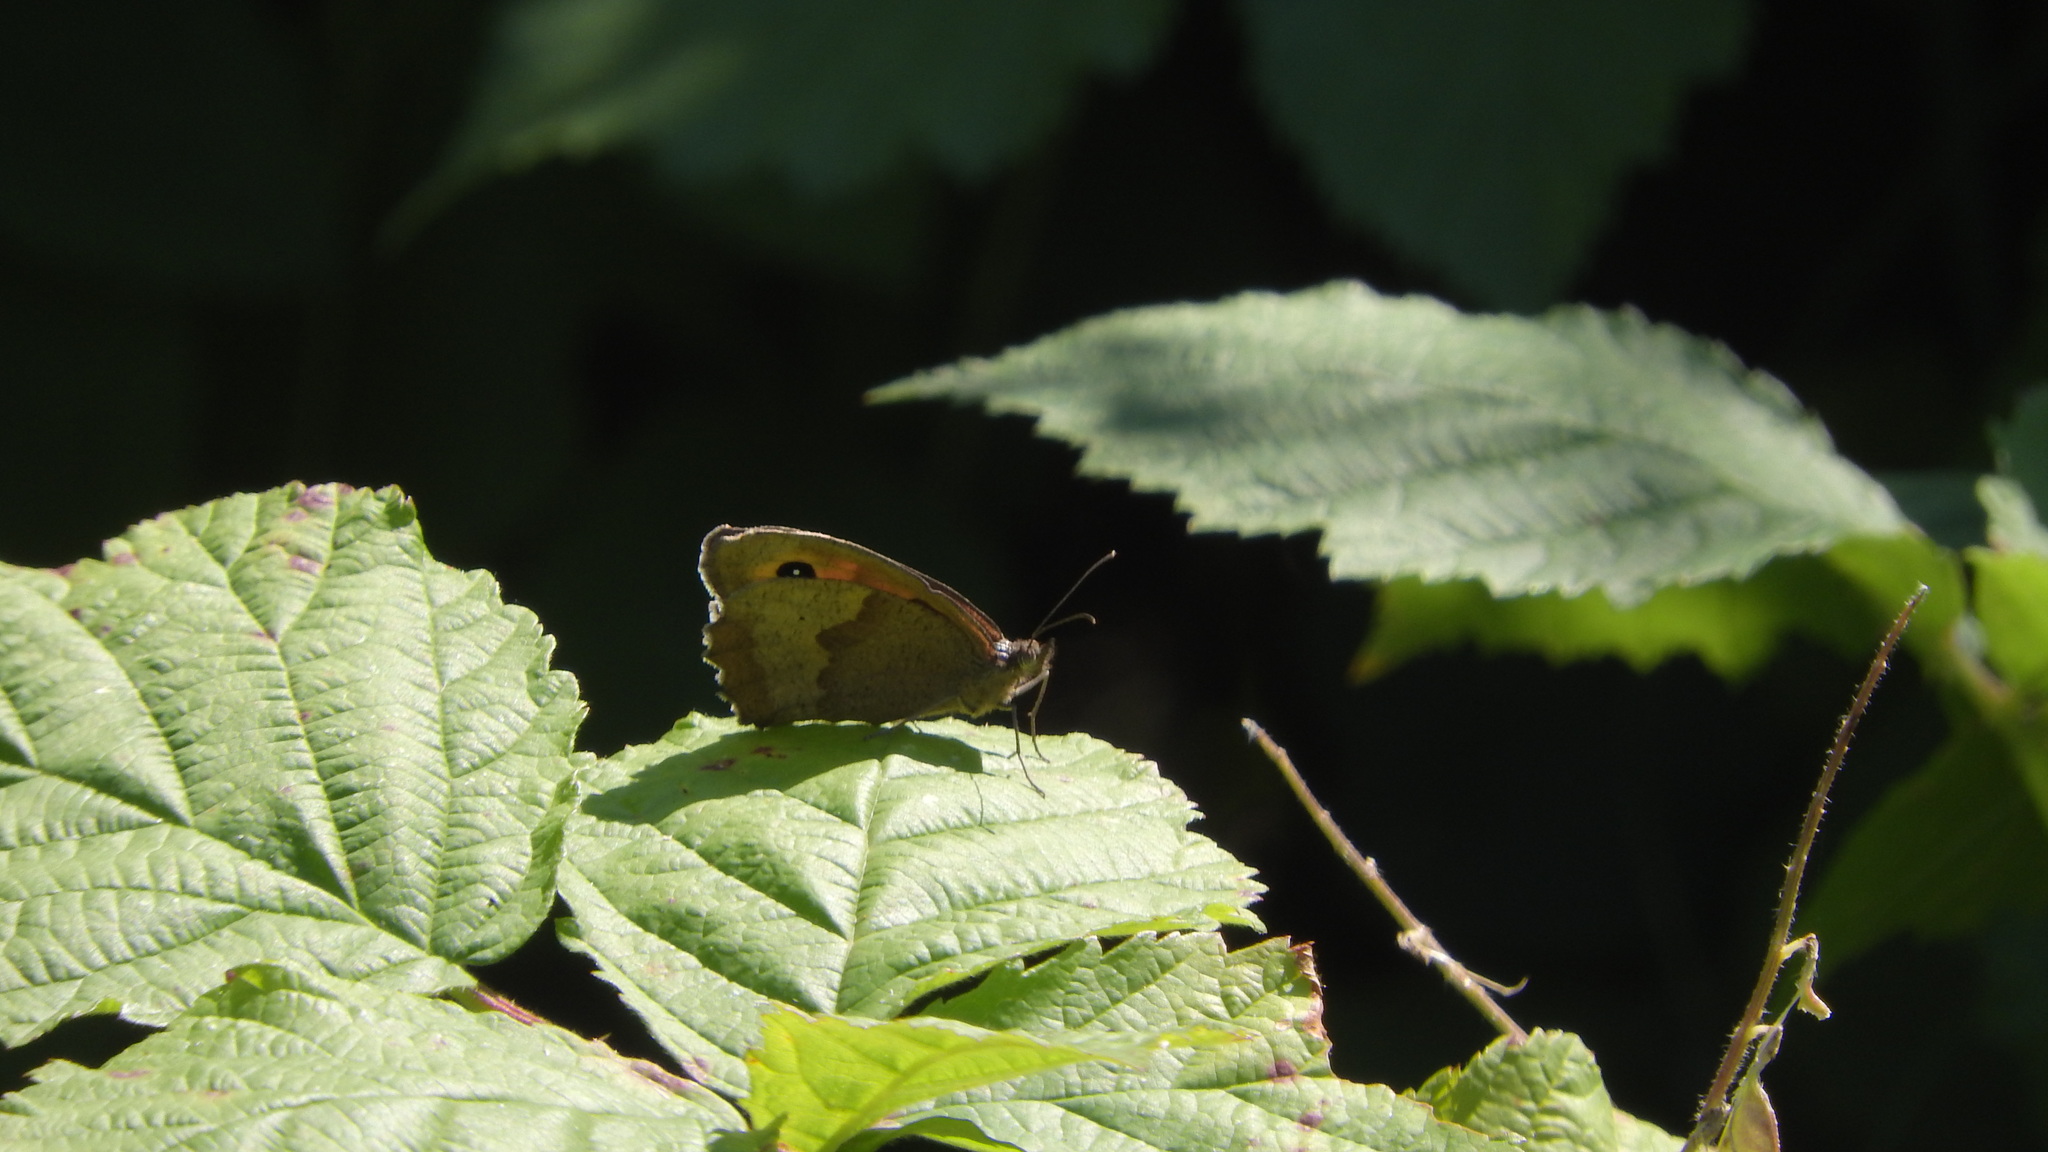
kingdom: Animalia
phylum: Arthropoda
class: Insecta
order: Lepidoptera
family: Nymphalidae
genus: Maniola
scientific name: Maniola jurtina
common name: Meadow brown
